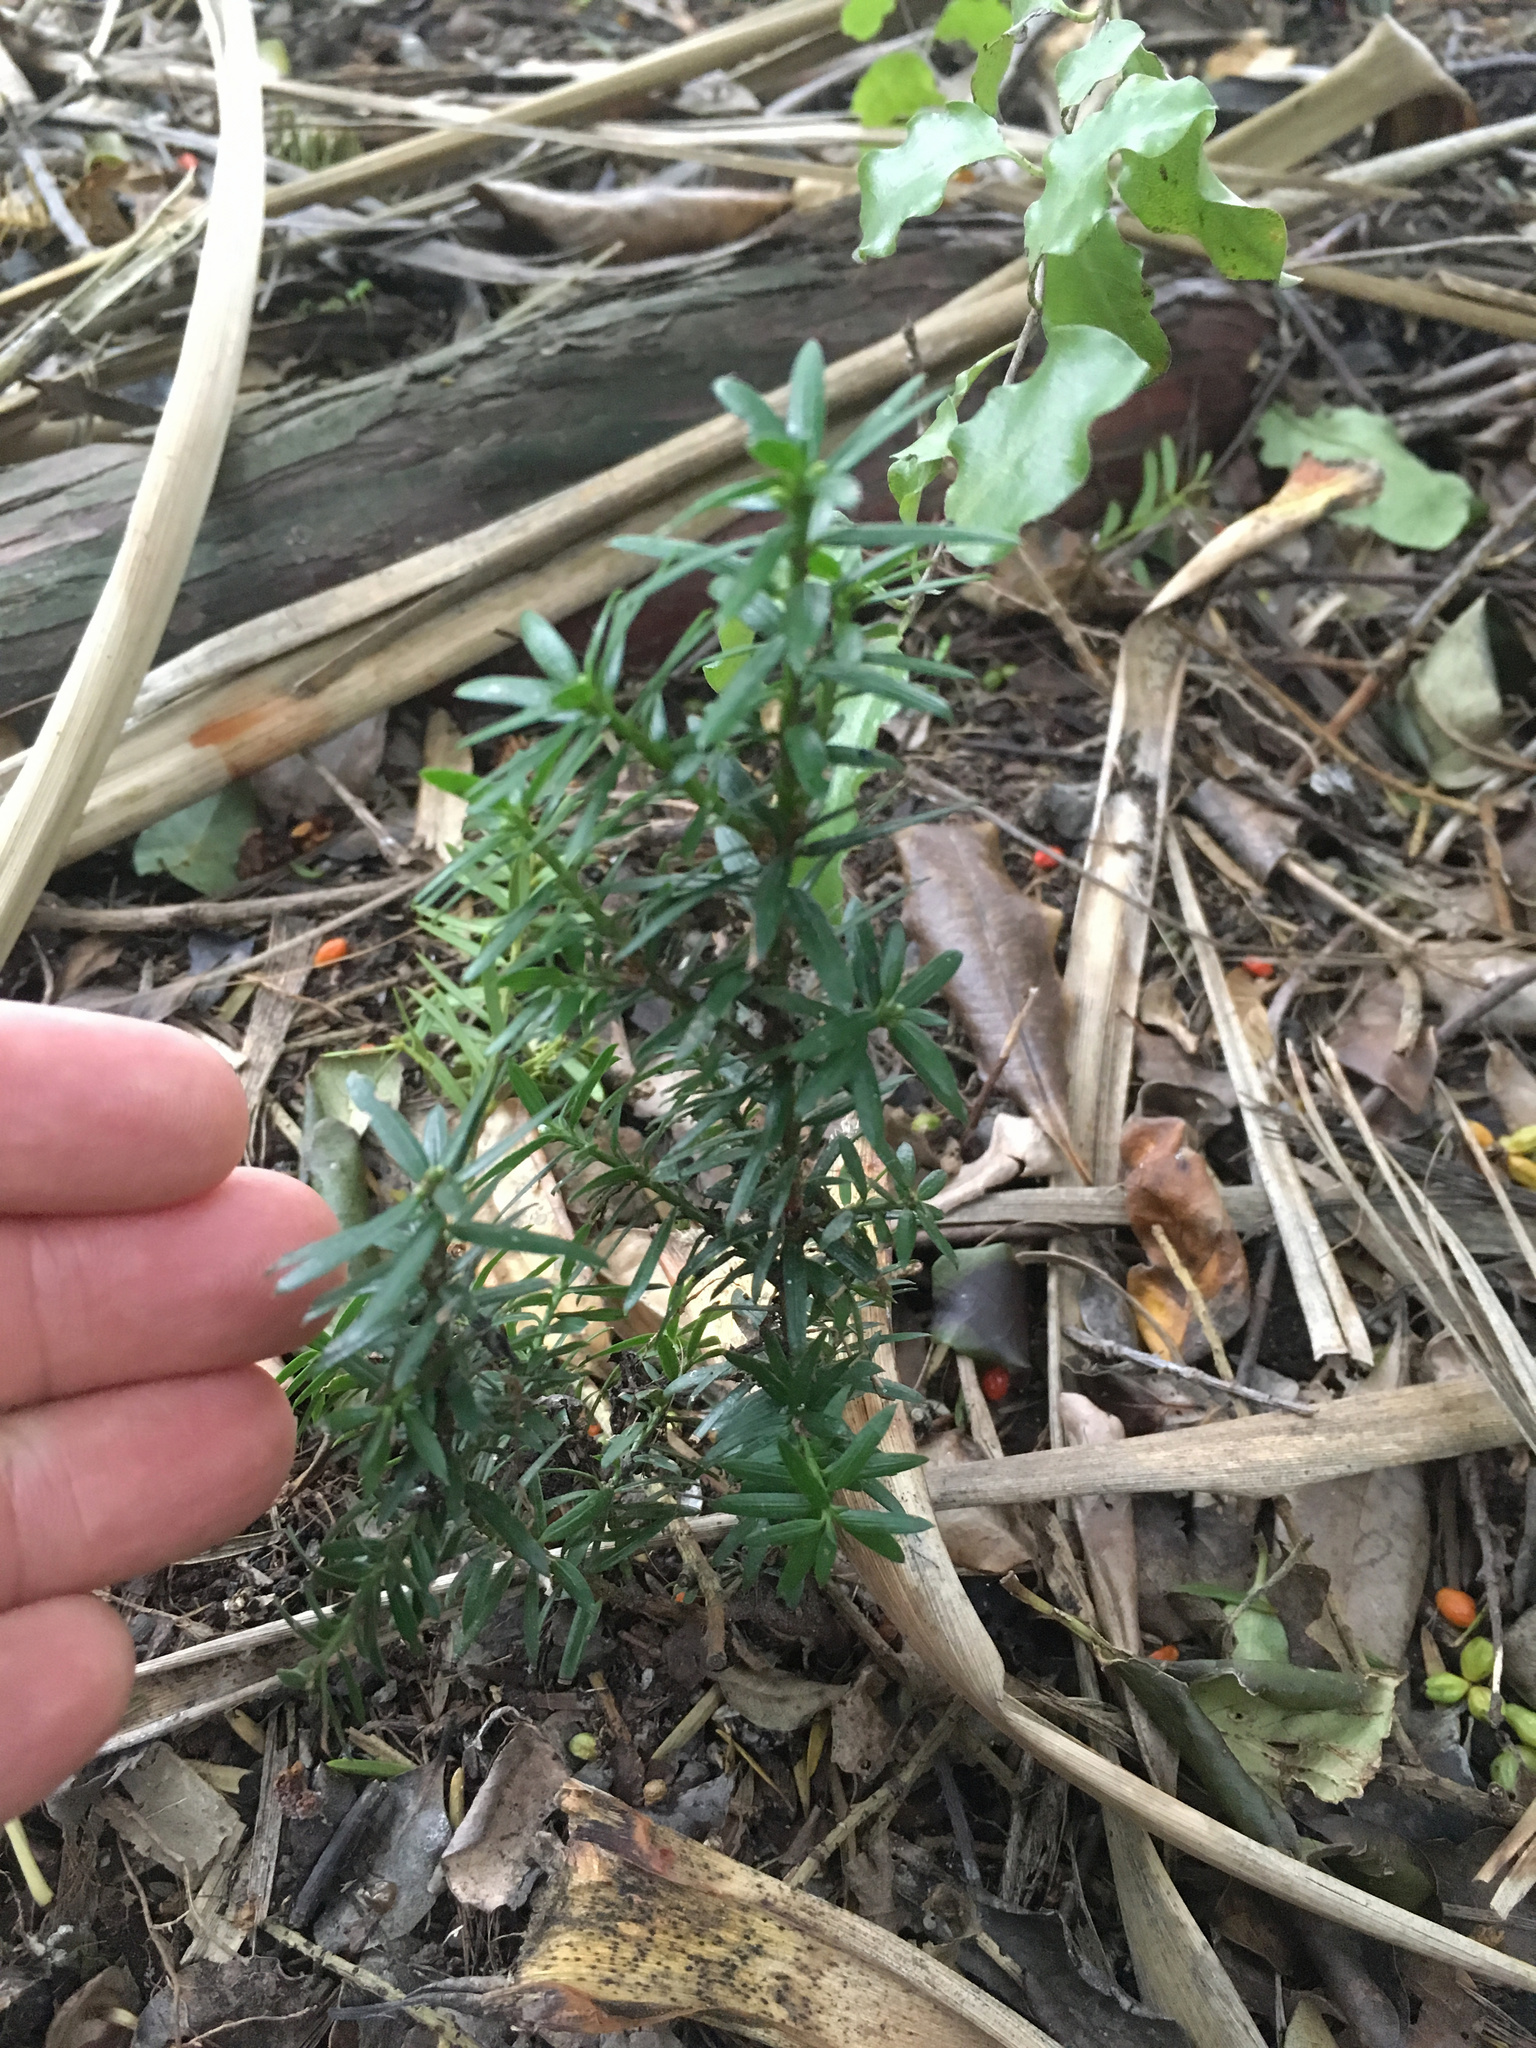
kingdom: Plantae
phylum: Tracheophyta
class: Pinopsida
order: Pinales
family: Taxaceae
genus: Taxus
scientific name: Taxus baccata
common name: Yew
